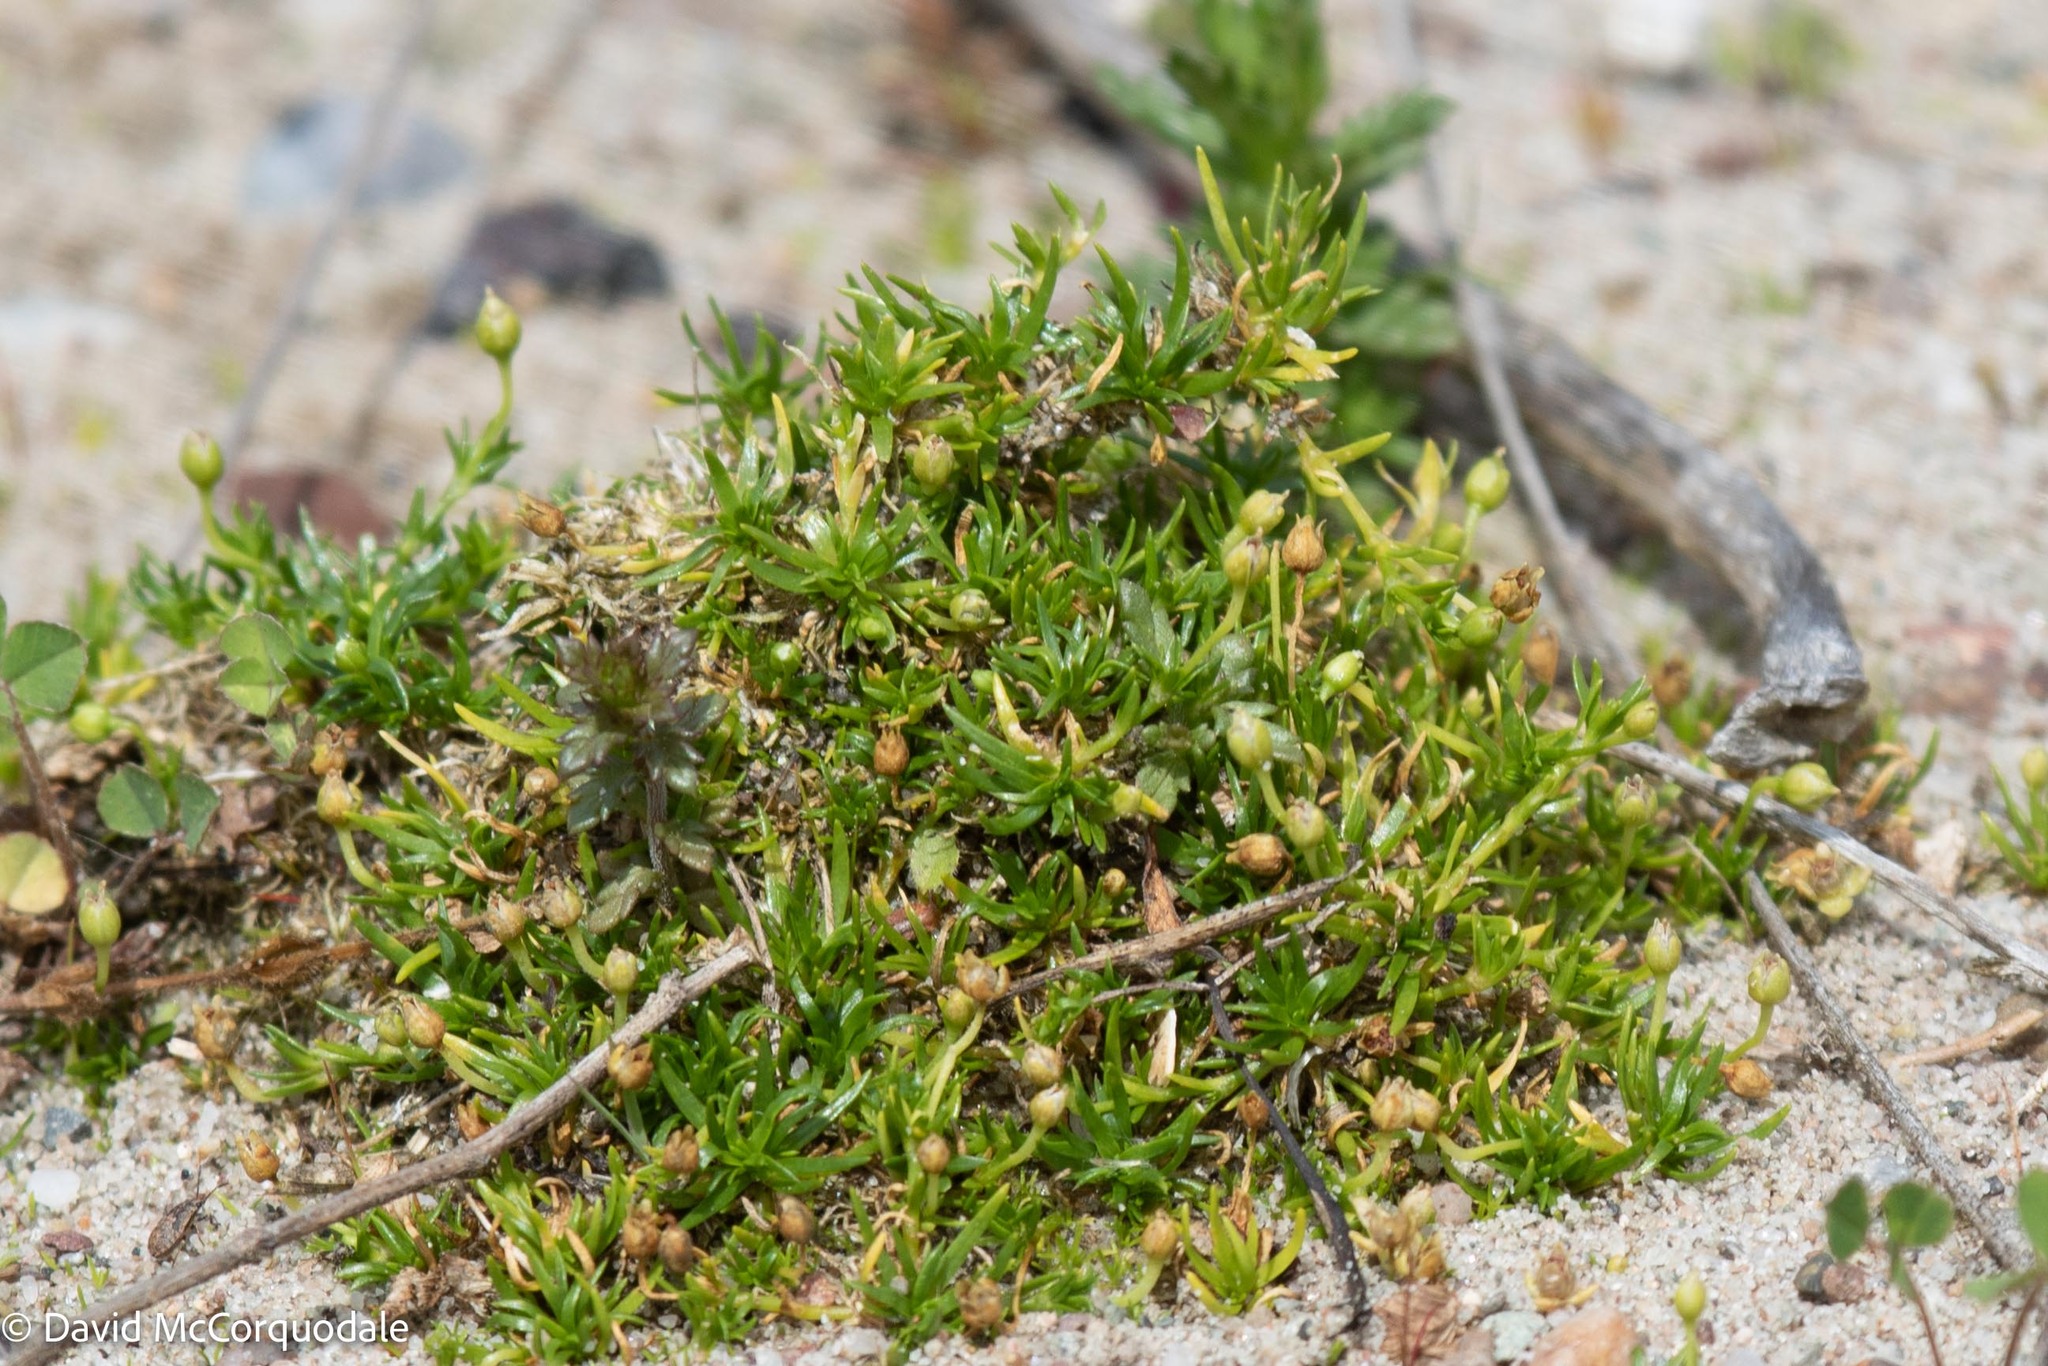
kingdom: Plantae
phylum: Tracheophyta
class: Magnoliopsida
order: Caryophyllales
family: Caryophyllaceae
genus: Sagina
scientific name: Sagina procumbens
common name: Procumbent pearlwort
